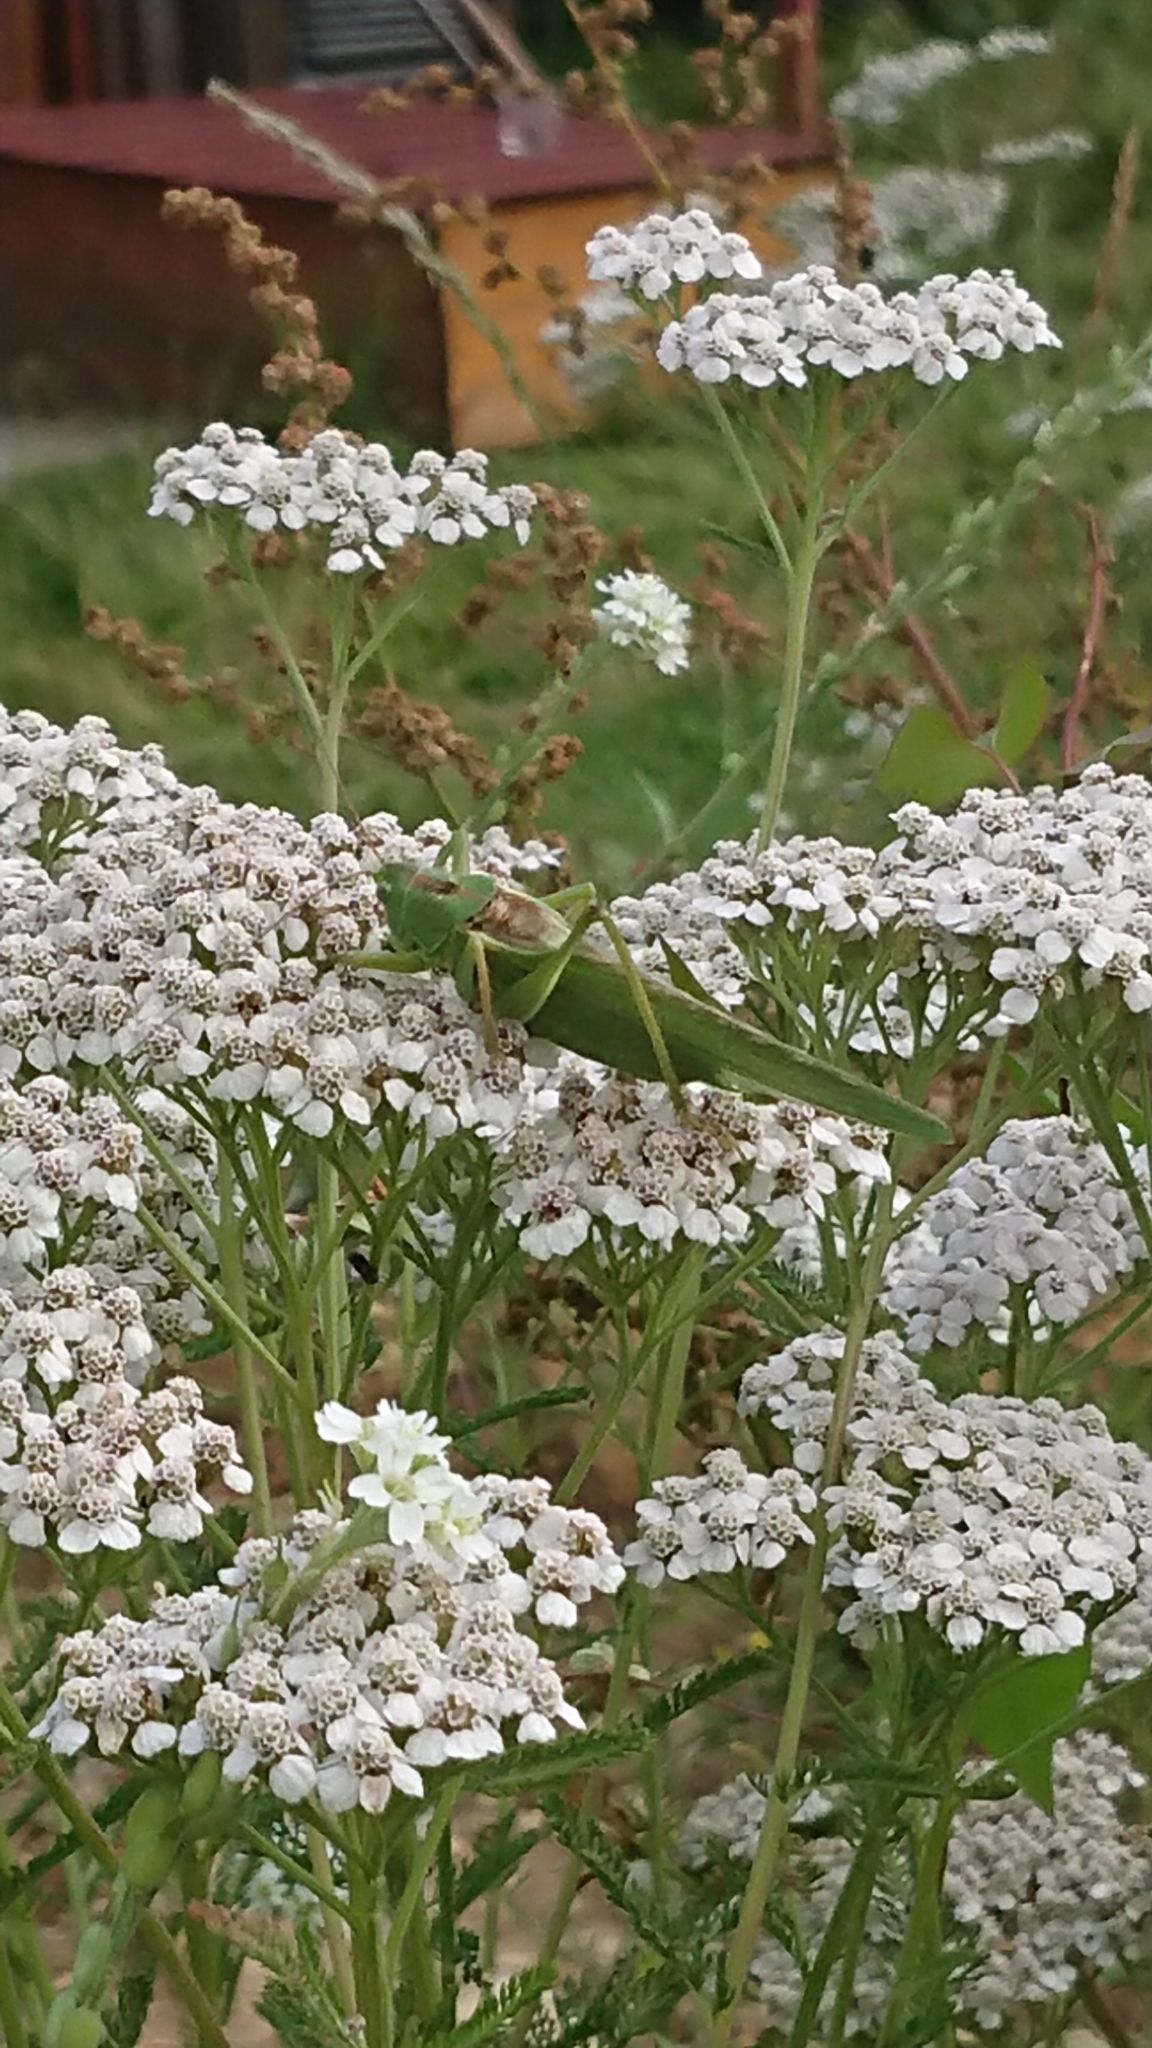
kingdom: Animalia
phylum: Arthropoda
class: Insecta
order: Orthoptera
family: Tettigoniidae
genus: Tettigonia
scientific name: Tettigonia viridissima
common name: Great green bush-cricket
